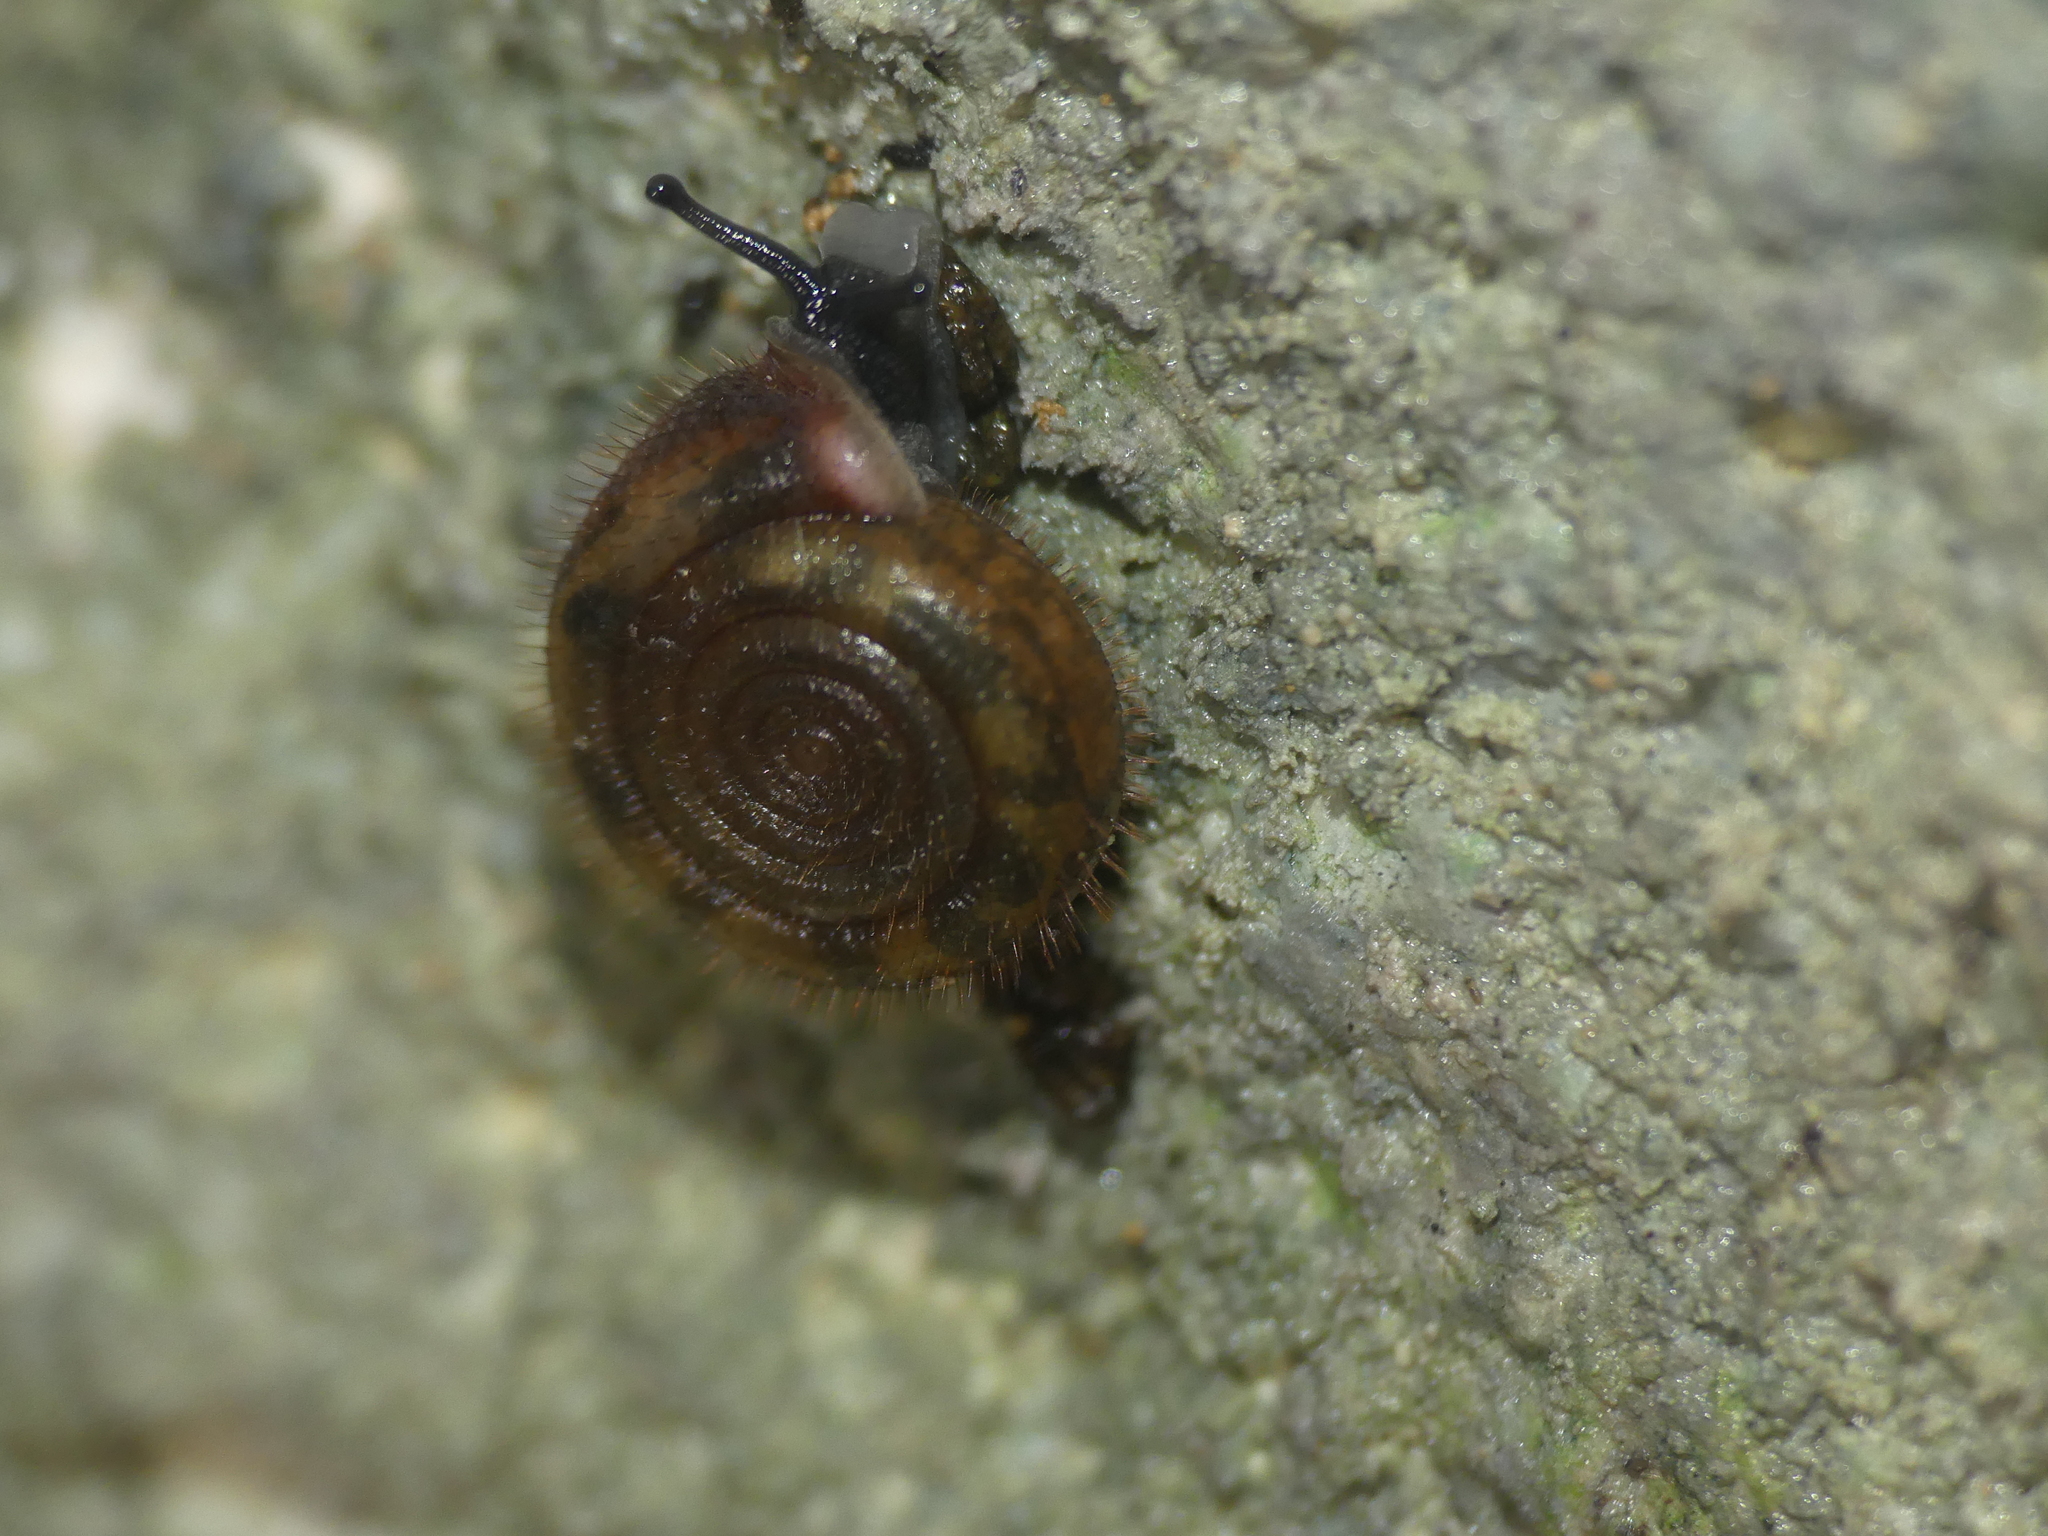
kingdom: Animalia
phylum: Mollusca
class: Gastropoda
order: Stylommatophora
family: Helicodontidae
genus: Helicodonta
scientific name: Helicodonta obvoluta
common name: Cheese snail
